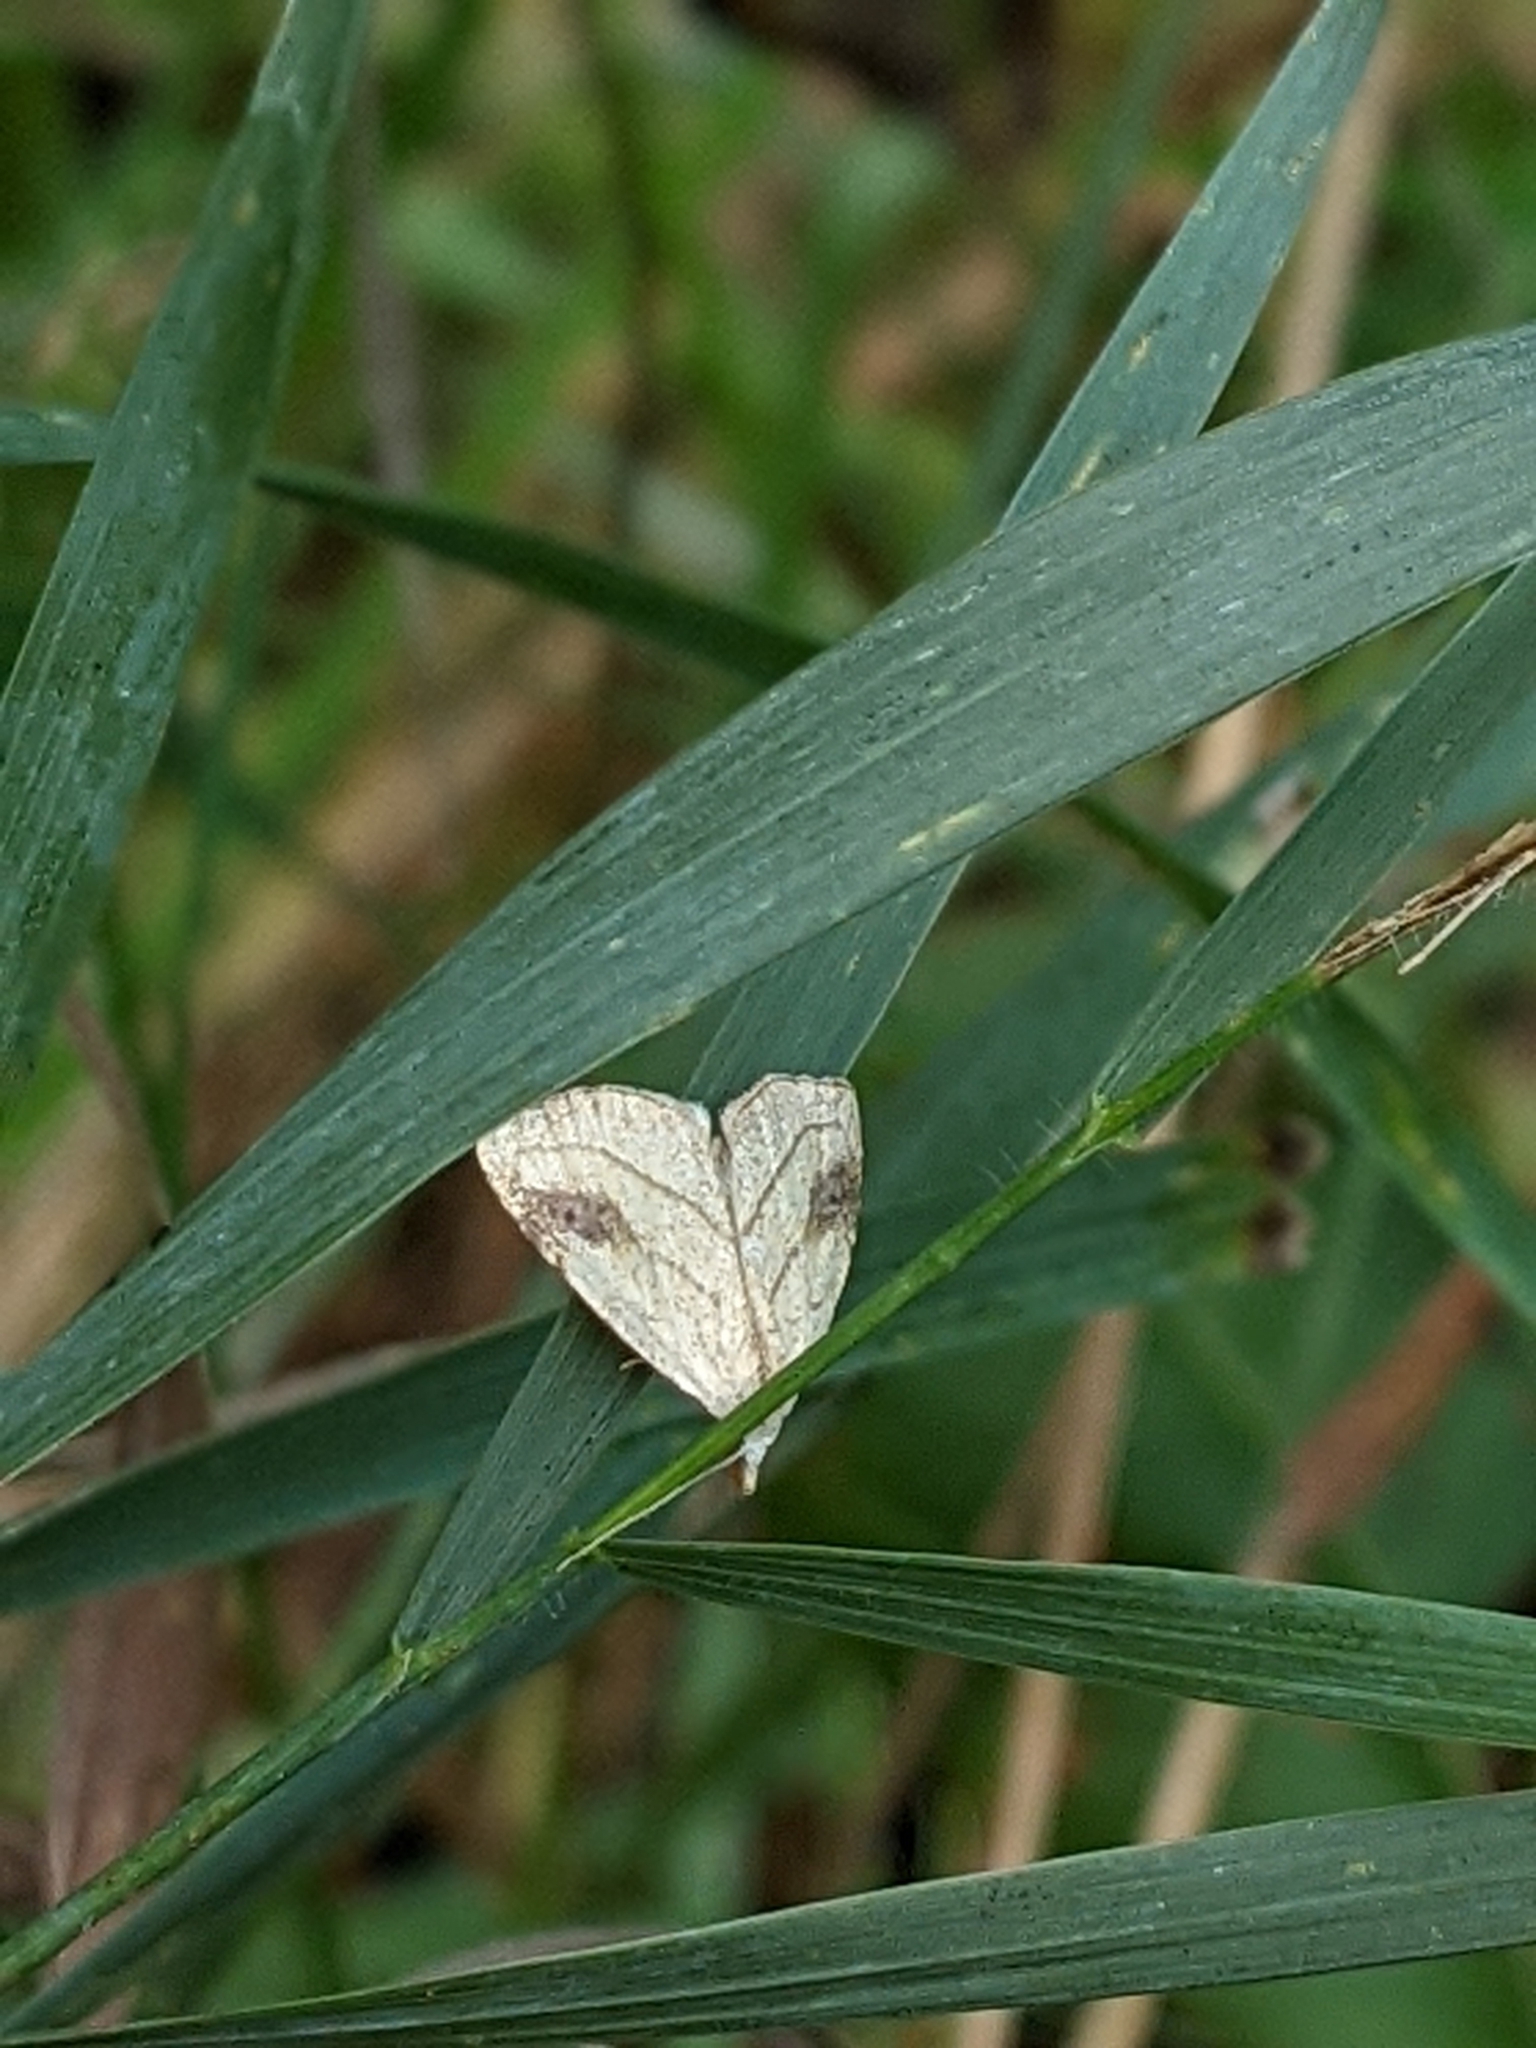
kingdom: Animalia
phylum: Arthropoda
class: Insecta
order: Lepidoptera
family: Erebidae
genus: Rivula
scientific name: Rivula propinqualis
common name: Spotted grass moth
